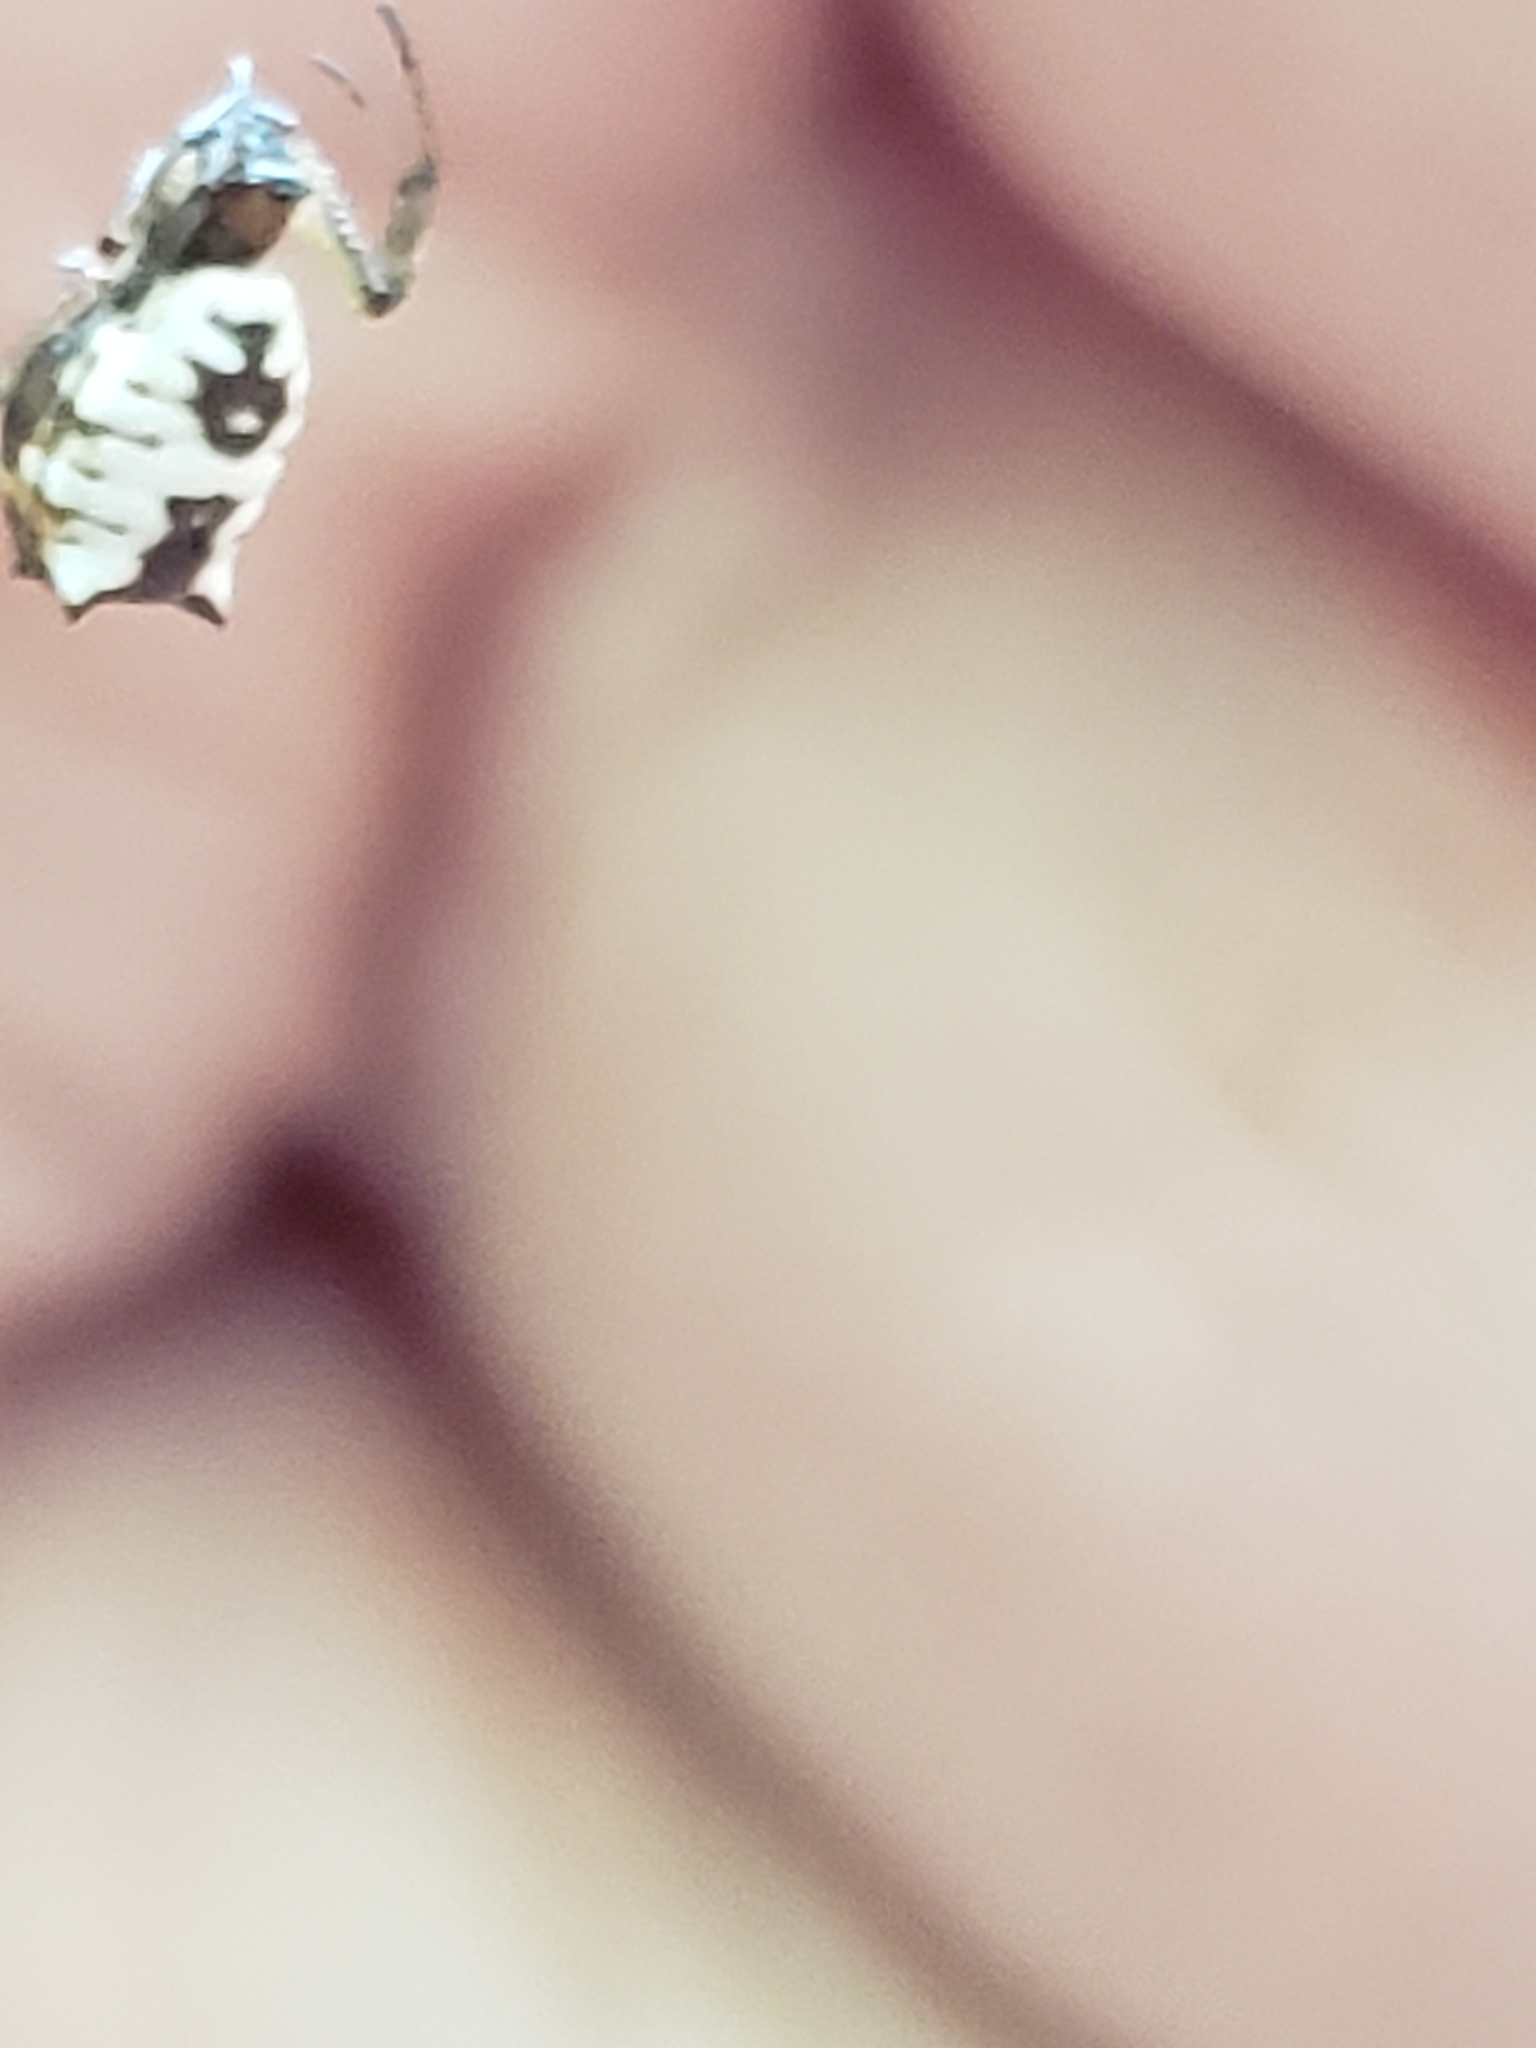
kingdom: Animalia
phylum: Arthropoda
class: Arachnida
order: Araneae
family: Araneidae
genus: Micrathena
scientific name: Micrathena mitrata
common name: Orb weavers
